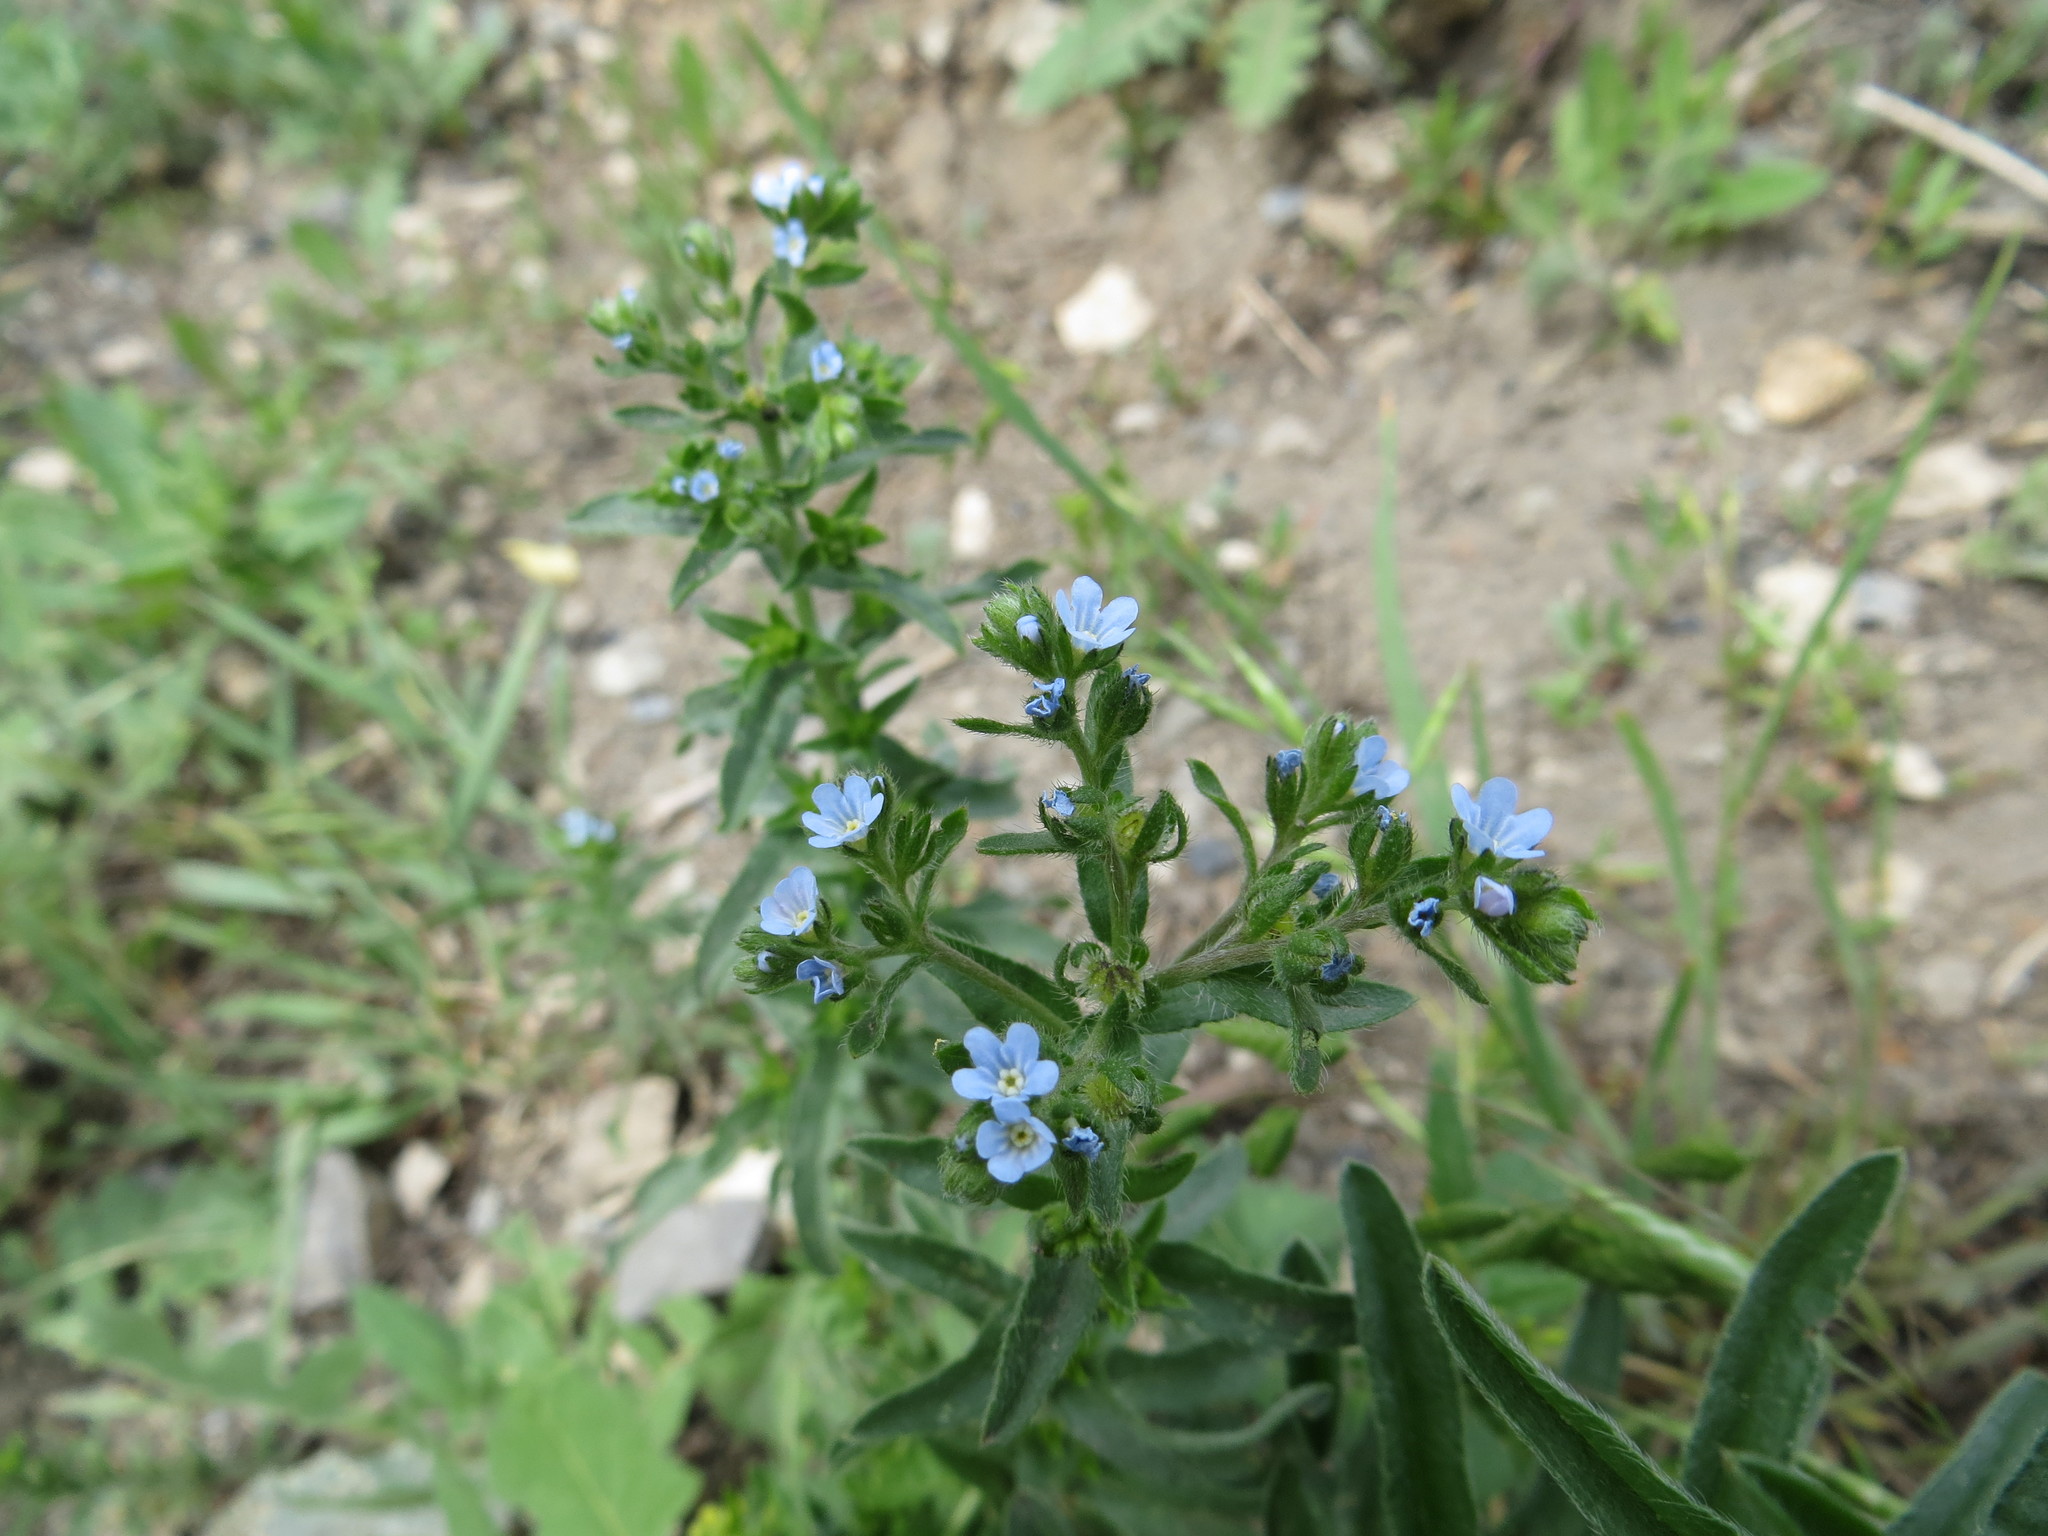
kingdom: Plantae
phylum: Tracheophyta
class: Magnoliopsida
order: Boraginales
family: Boraginaceae
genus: Lappula
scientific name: Lappula squarrosa
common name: European stickseed
